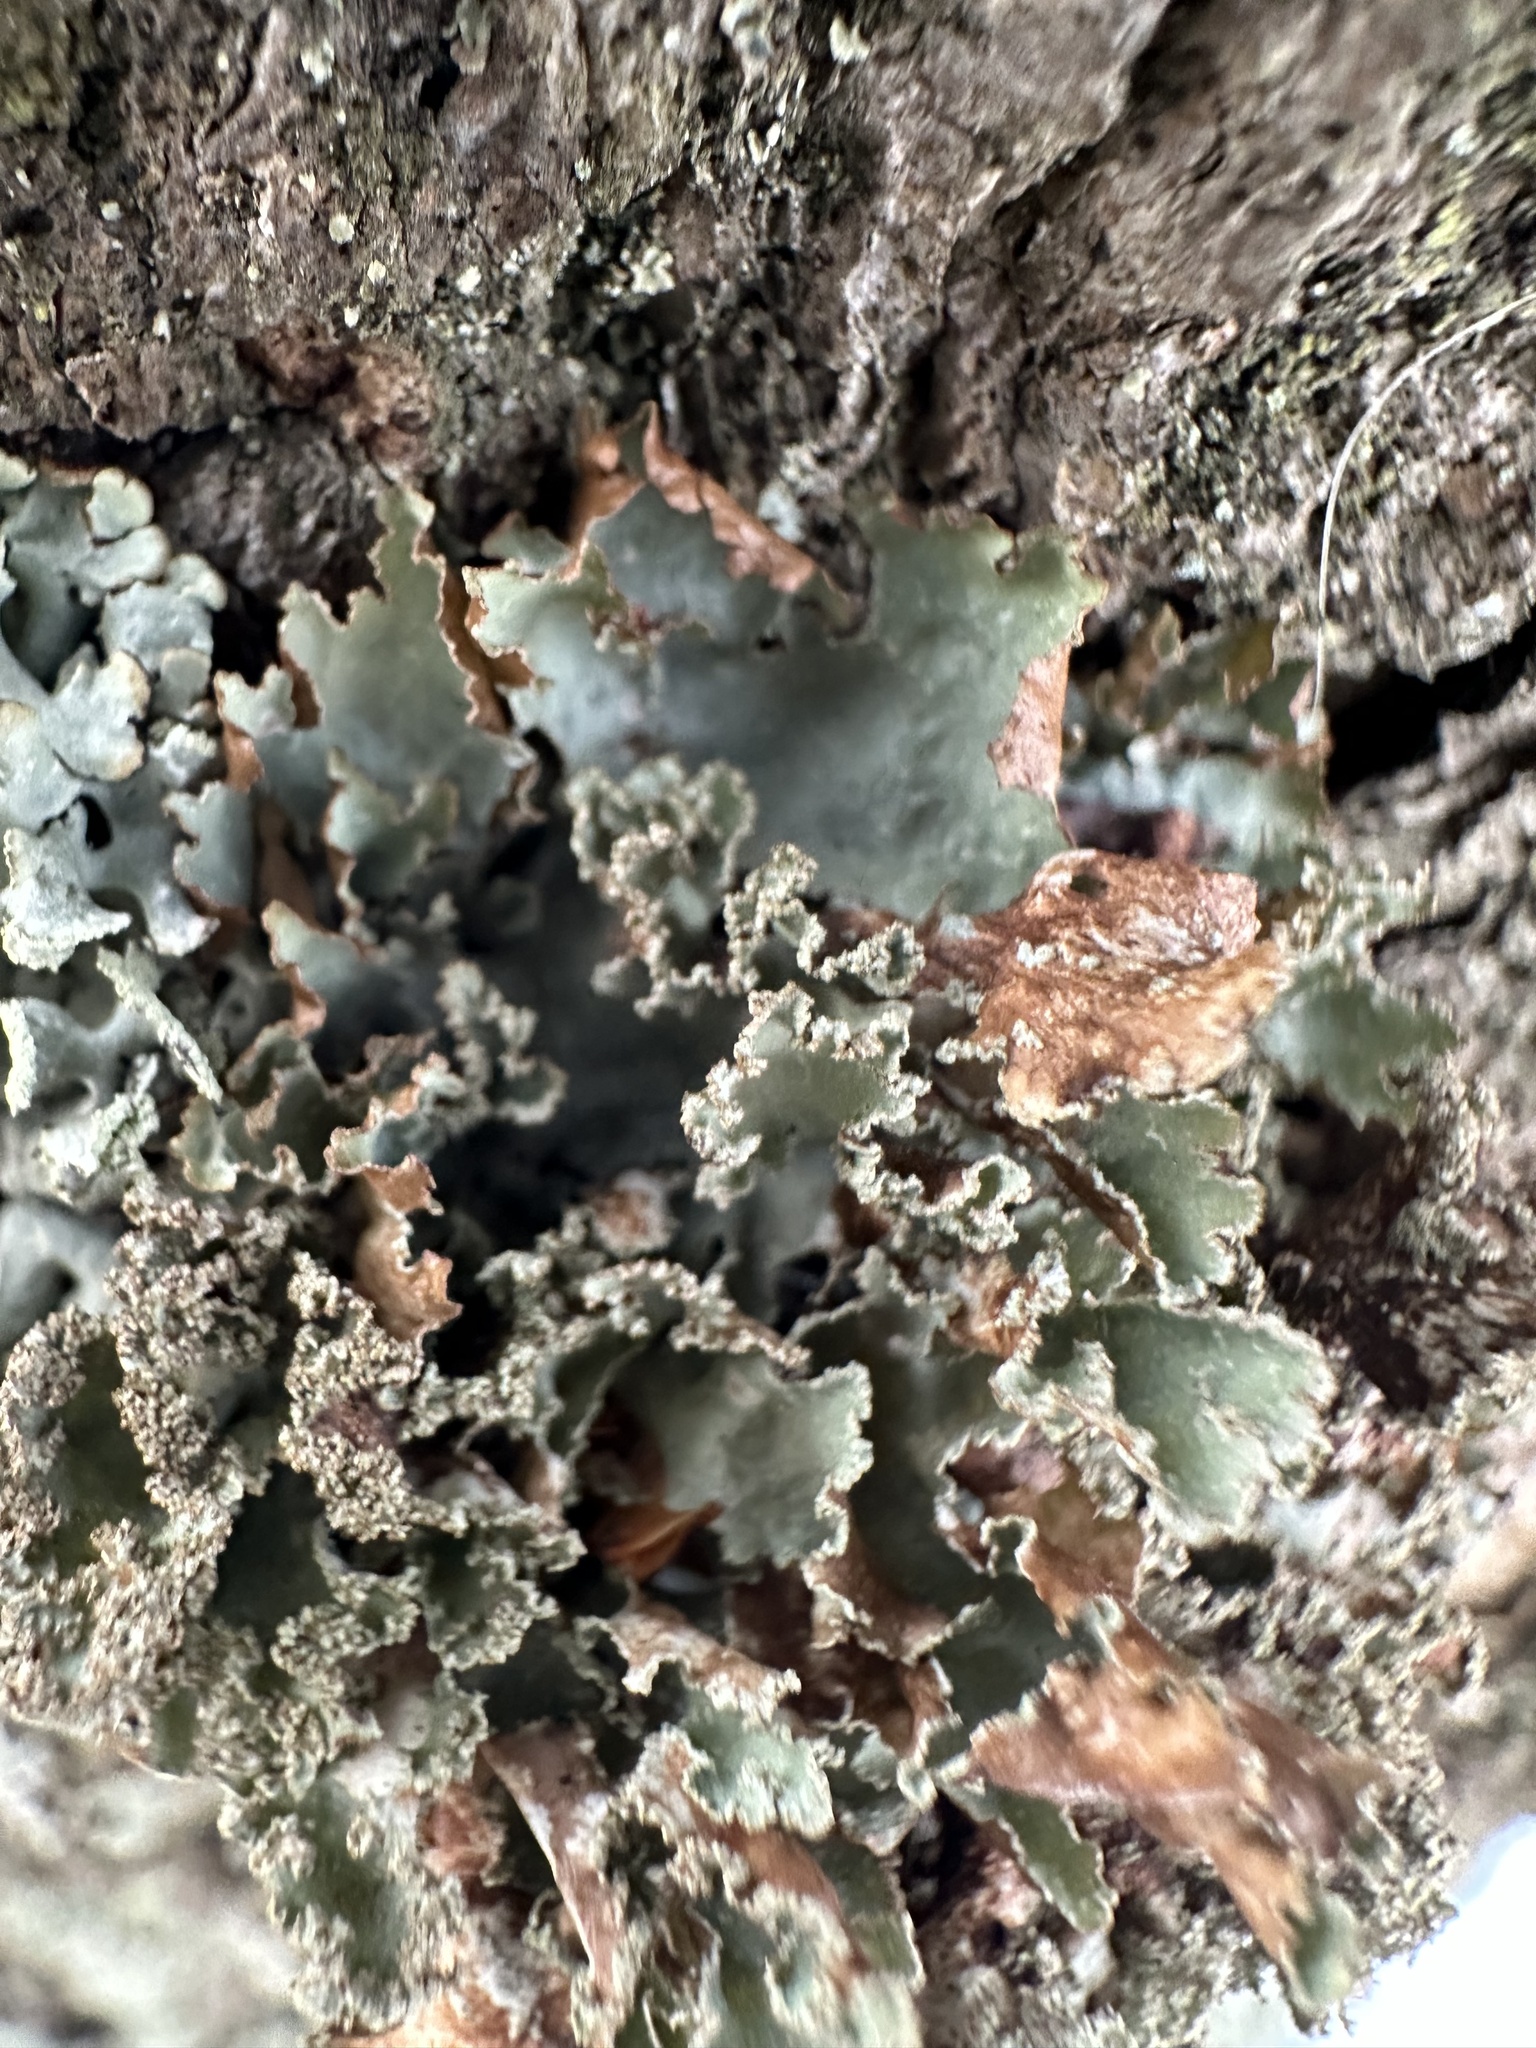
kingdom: Fungi
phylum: Ascomycota
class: Lecanoromycetes
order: Lecanorales
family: Parmeliaceae
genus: Platismatia
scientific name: Platismatia glauca
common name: Varied rag lichen
